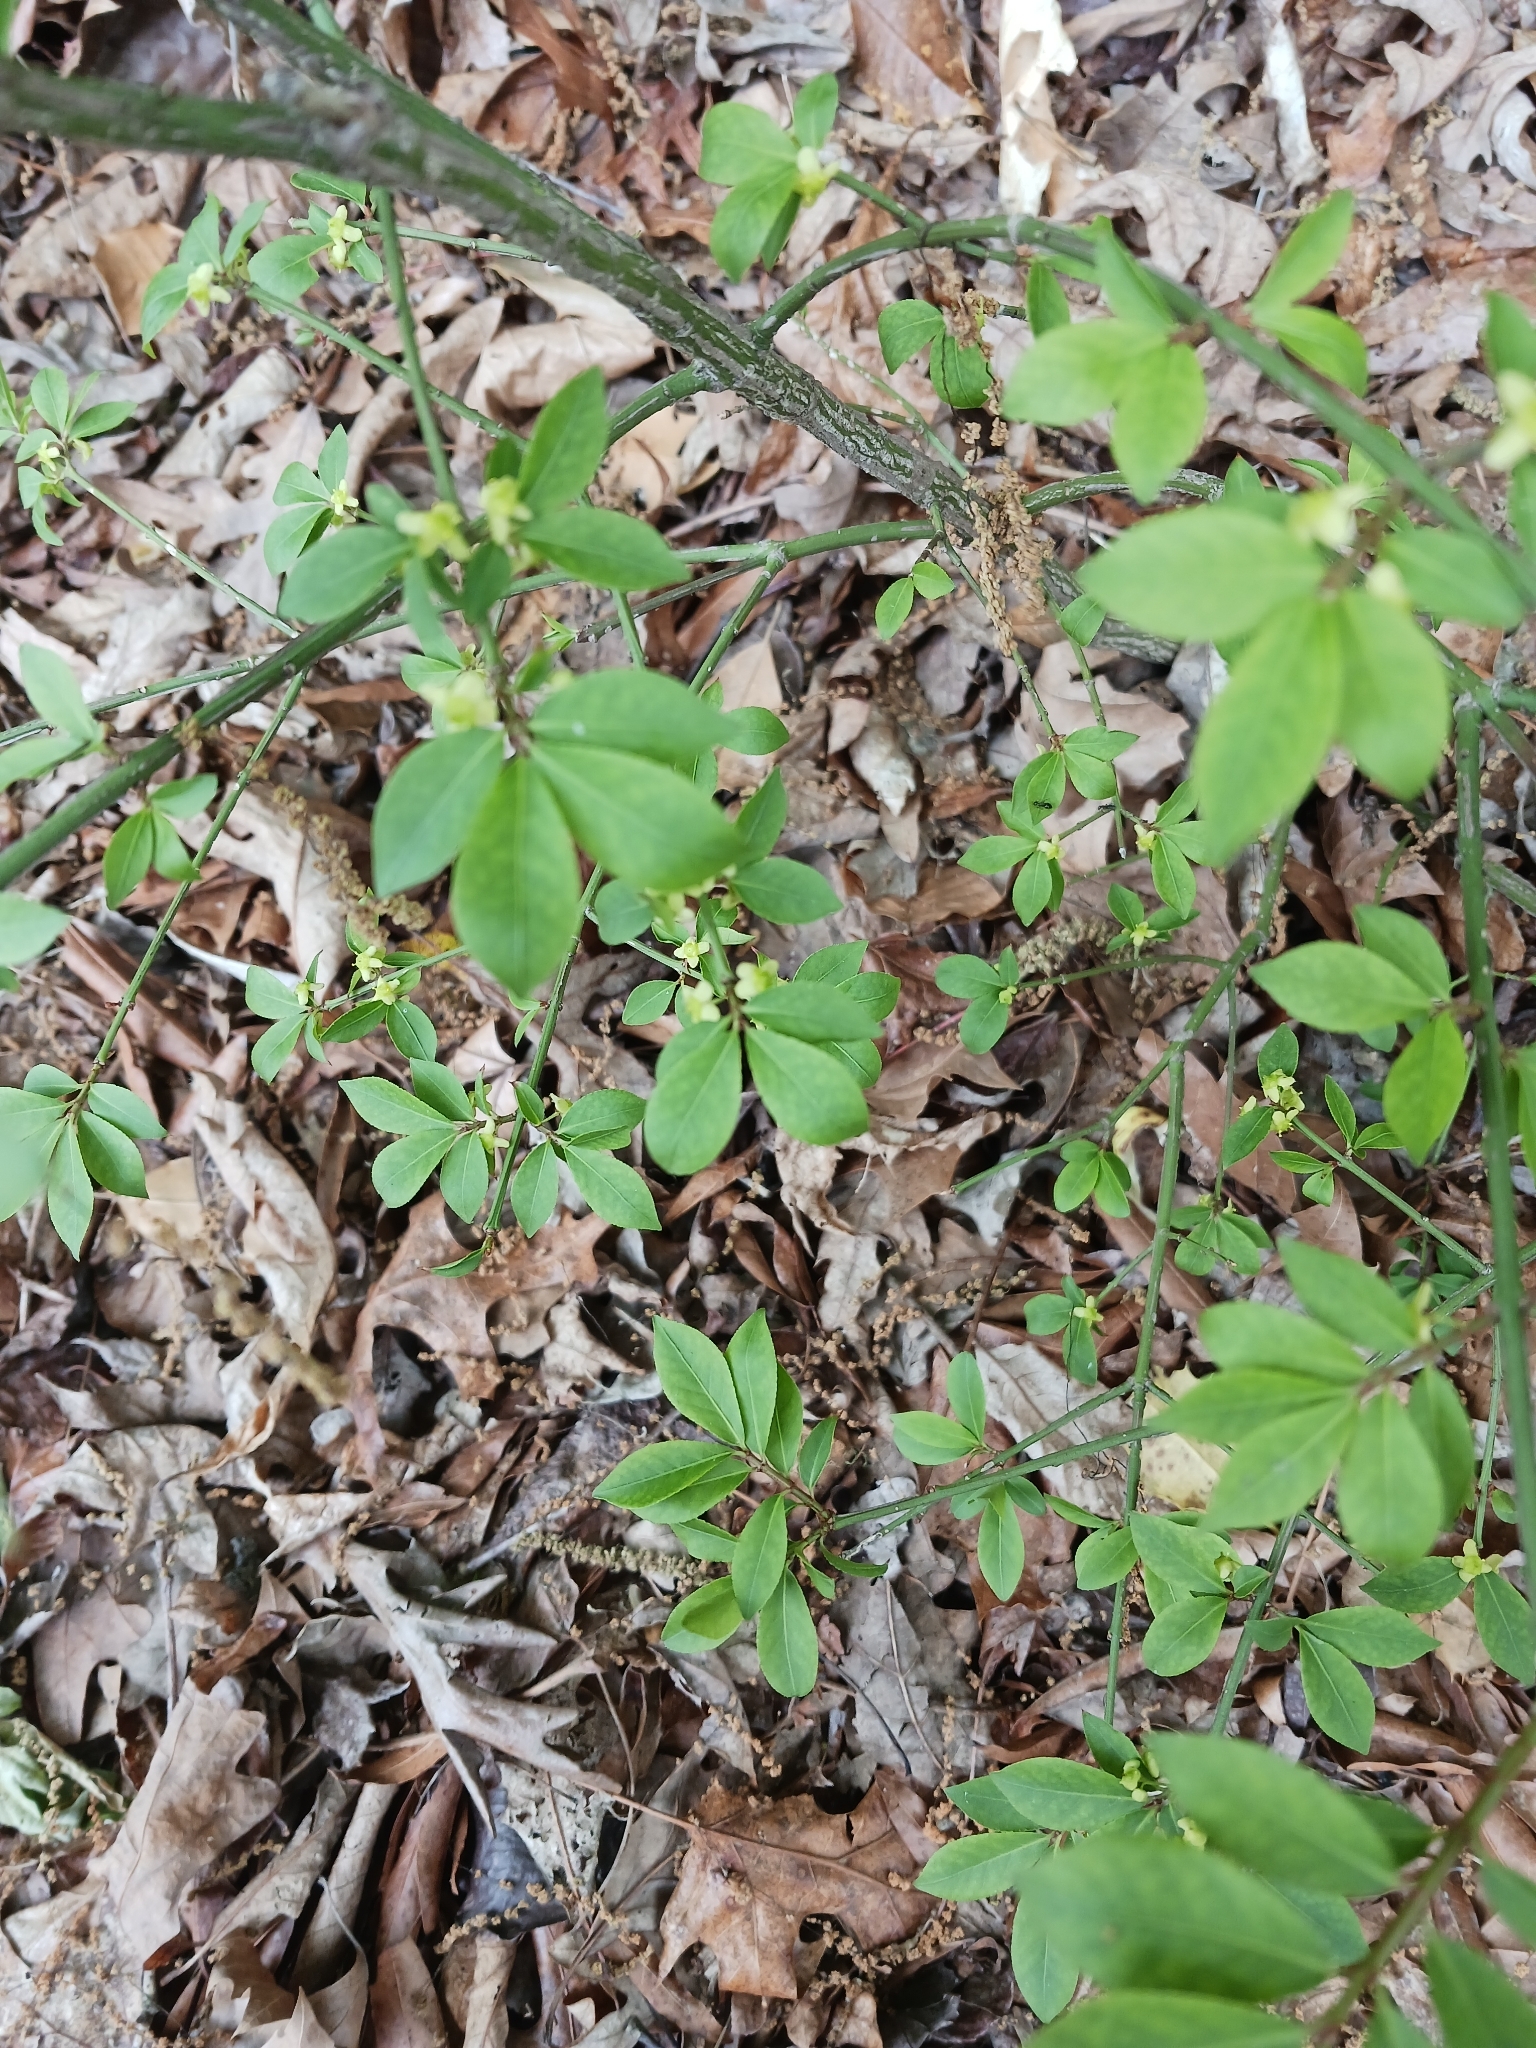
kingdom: Plantae
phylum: Tracheophyta
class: Magnoliopsida
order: Celastrales
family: Celastraceae
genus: Euonymus
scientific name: Euonymus alatus
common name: Winged euonymus
